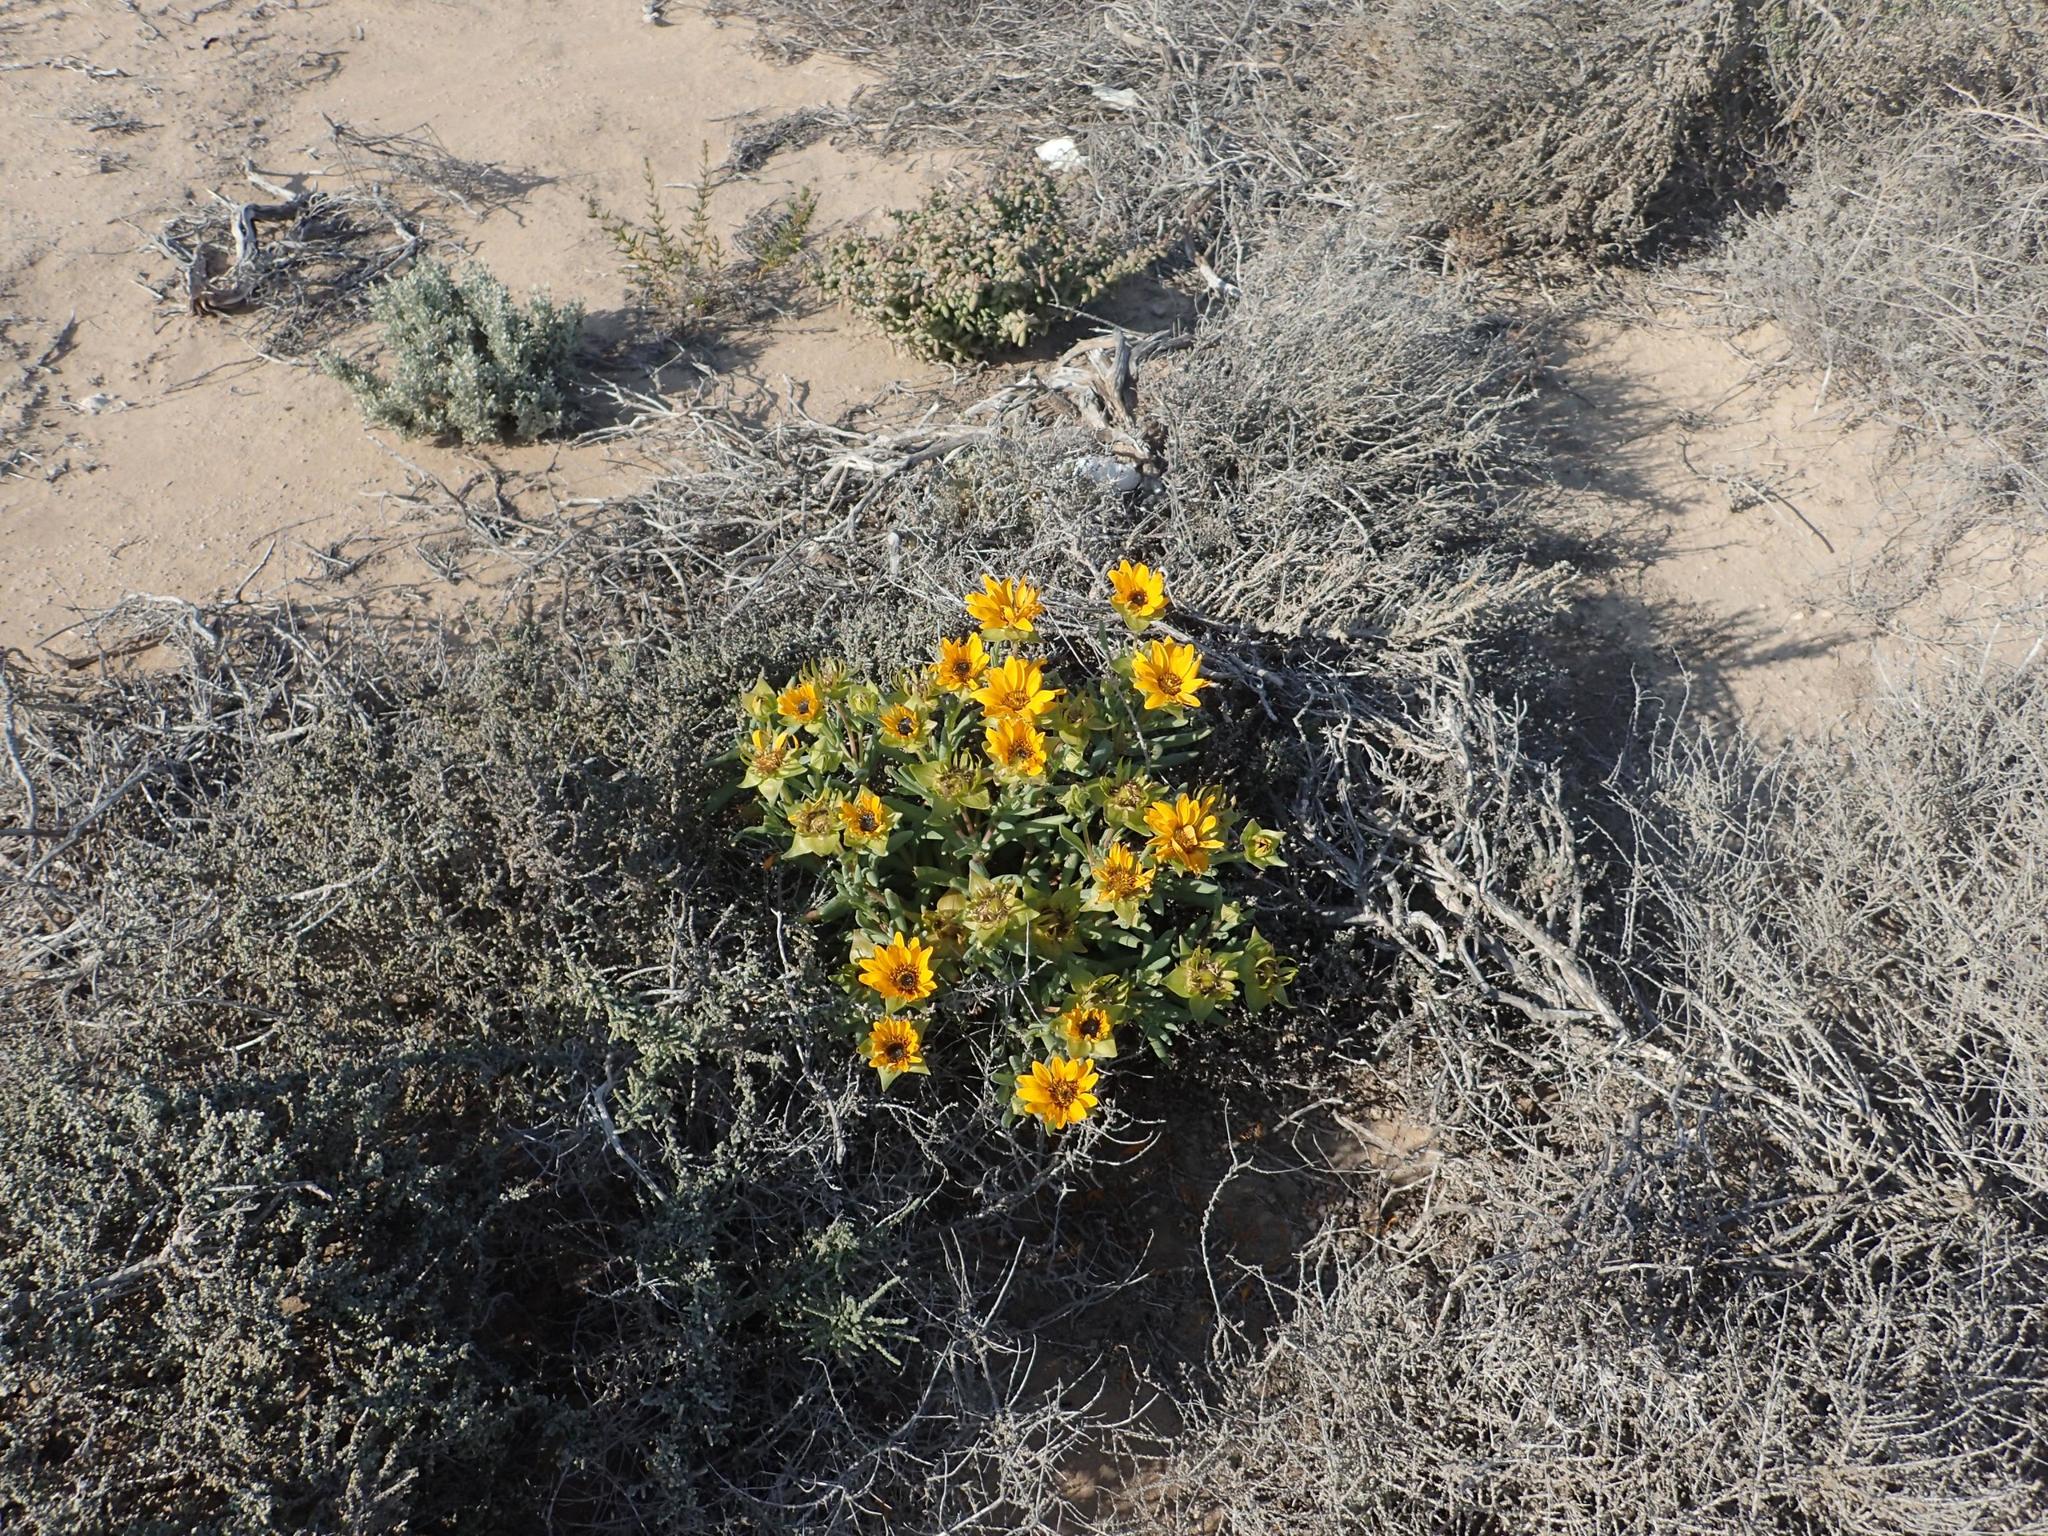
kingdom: Plantae
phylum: Tracheophyta
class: Magnoliopsida
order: Asterales
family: Asteraceae
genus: Didelta
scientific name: Didelta carnosa
